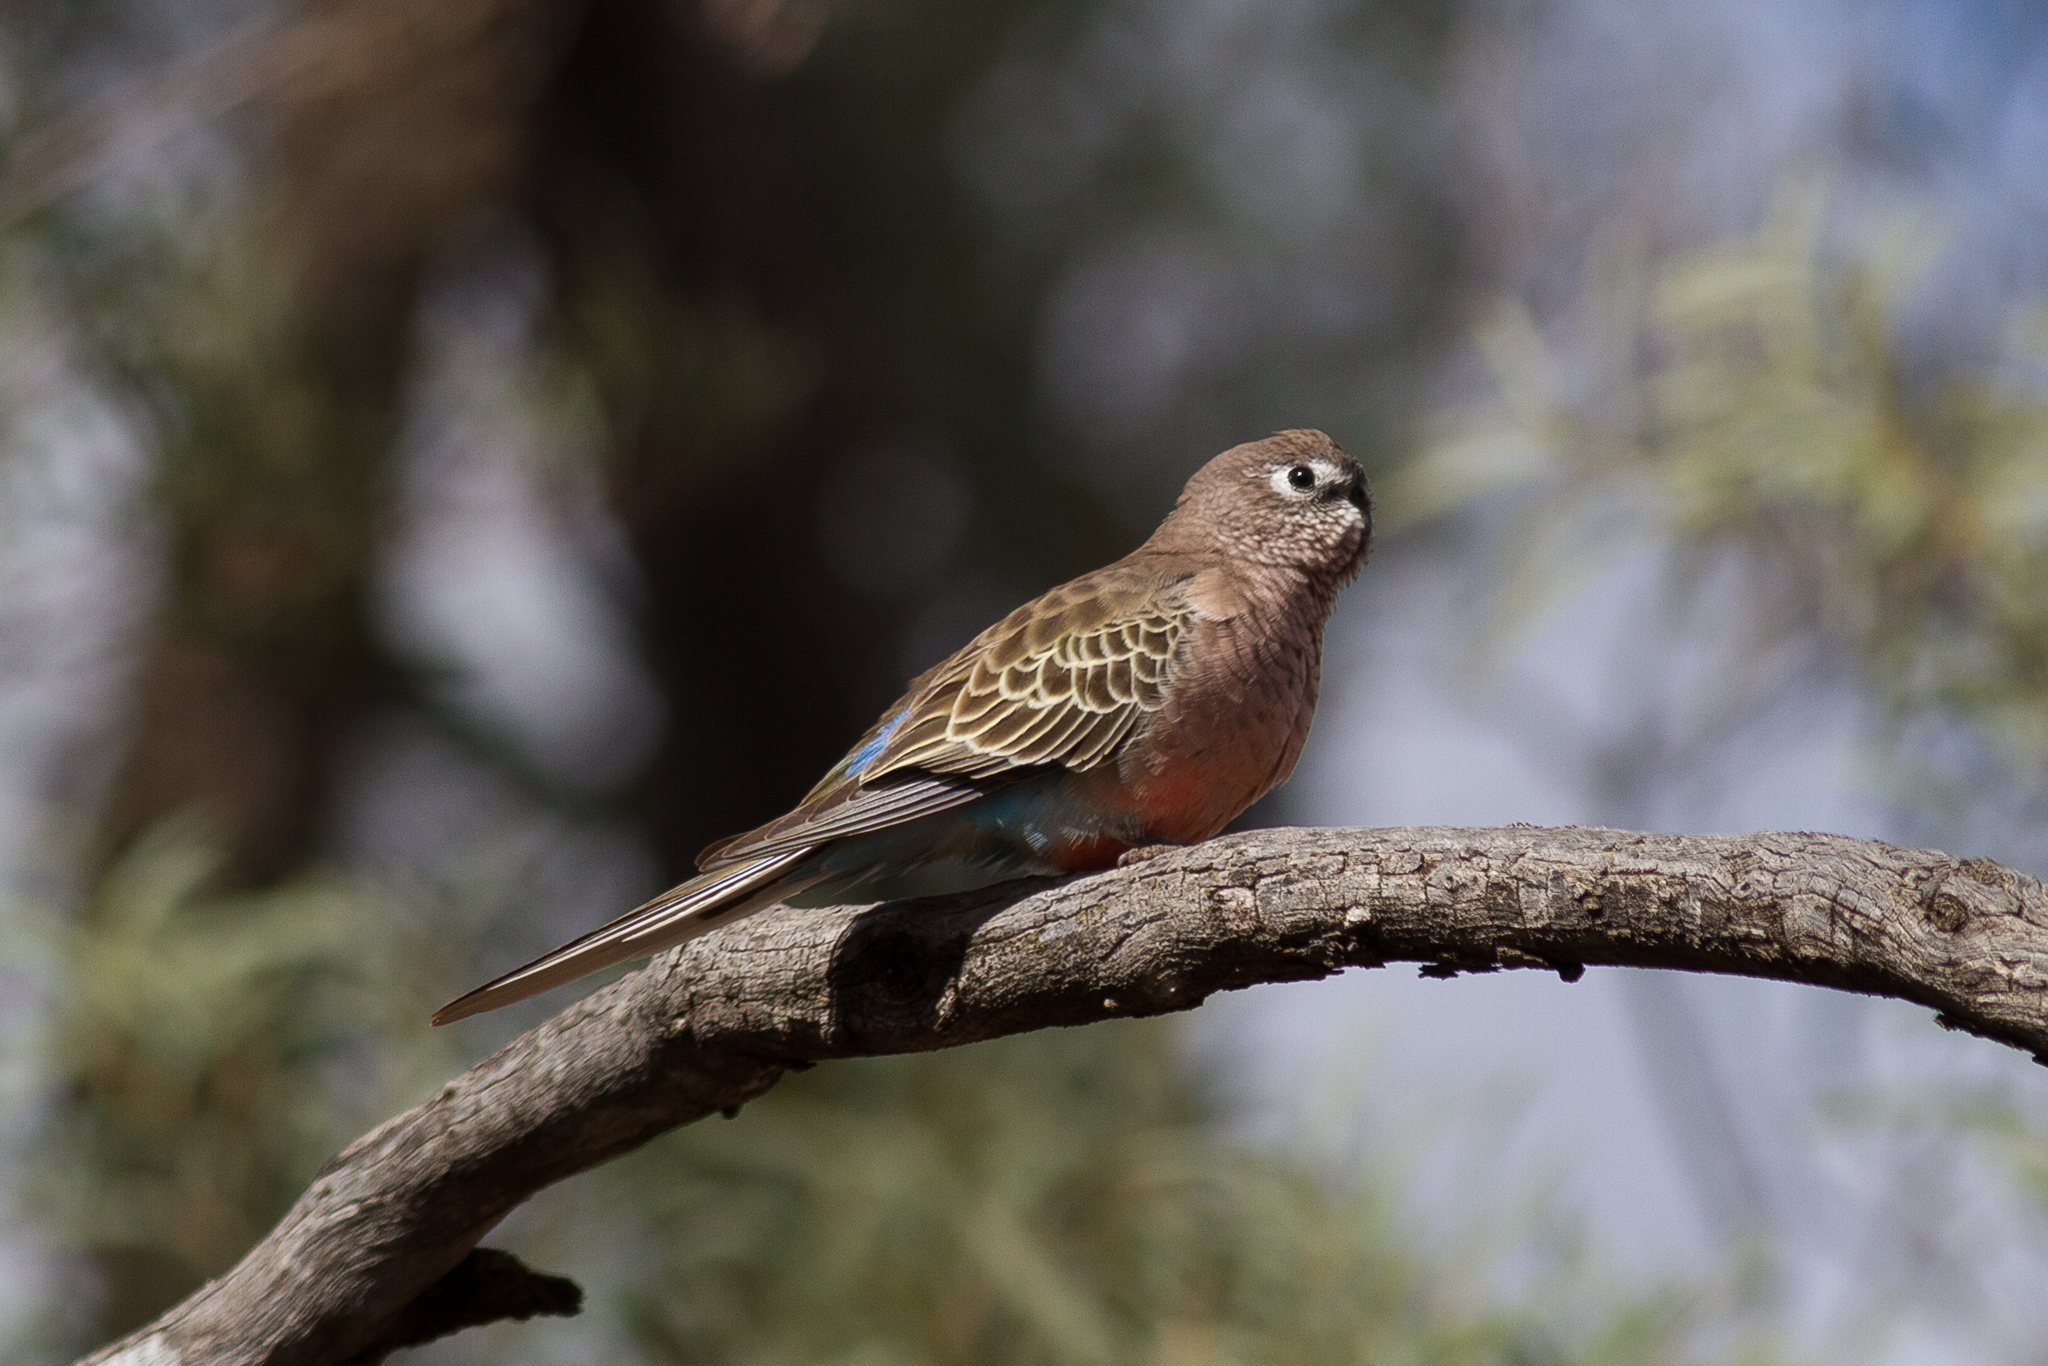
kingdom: Animalia
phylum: Chordata
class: Aves
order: Psittaciformes
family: Psittacidae
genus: Neopsephotus
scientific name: Neopsephotus bourkii
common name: Bourke's parrot
